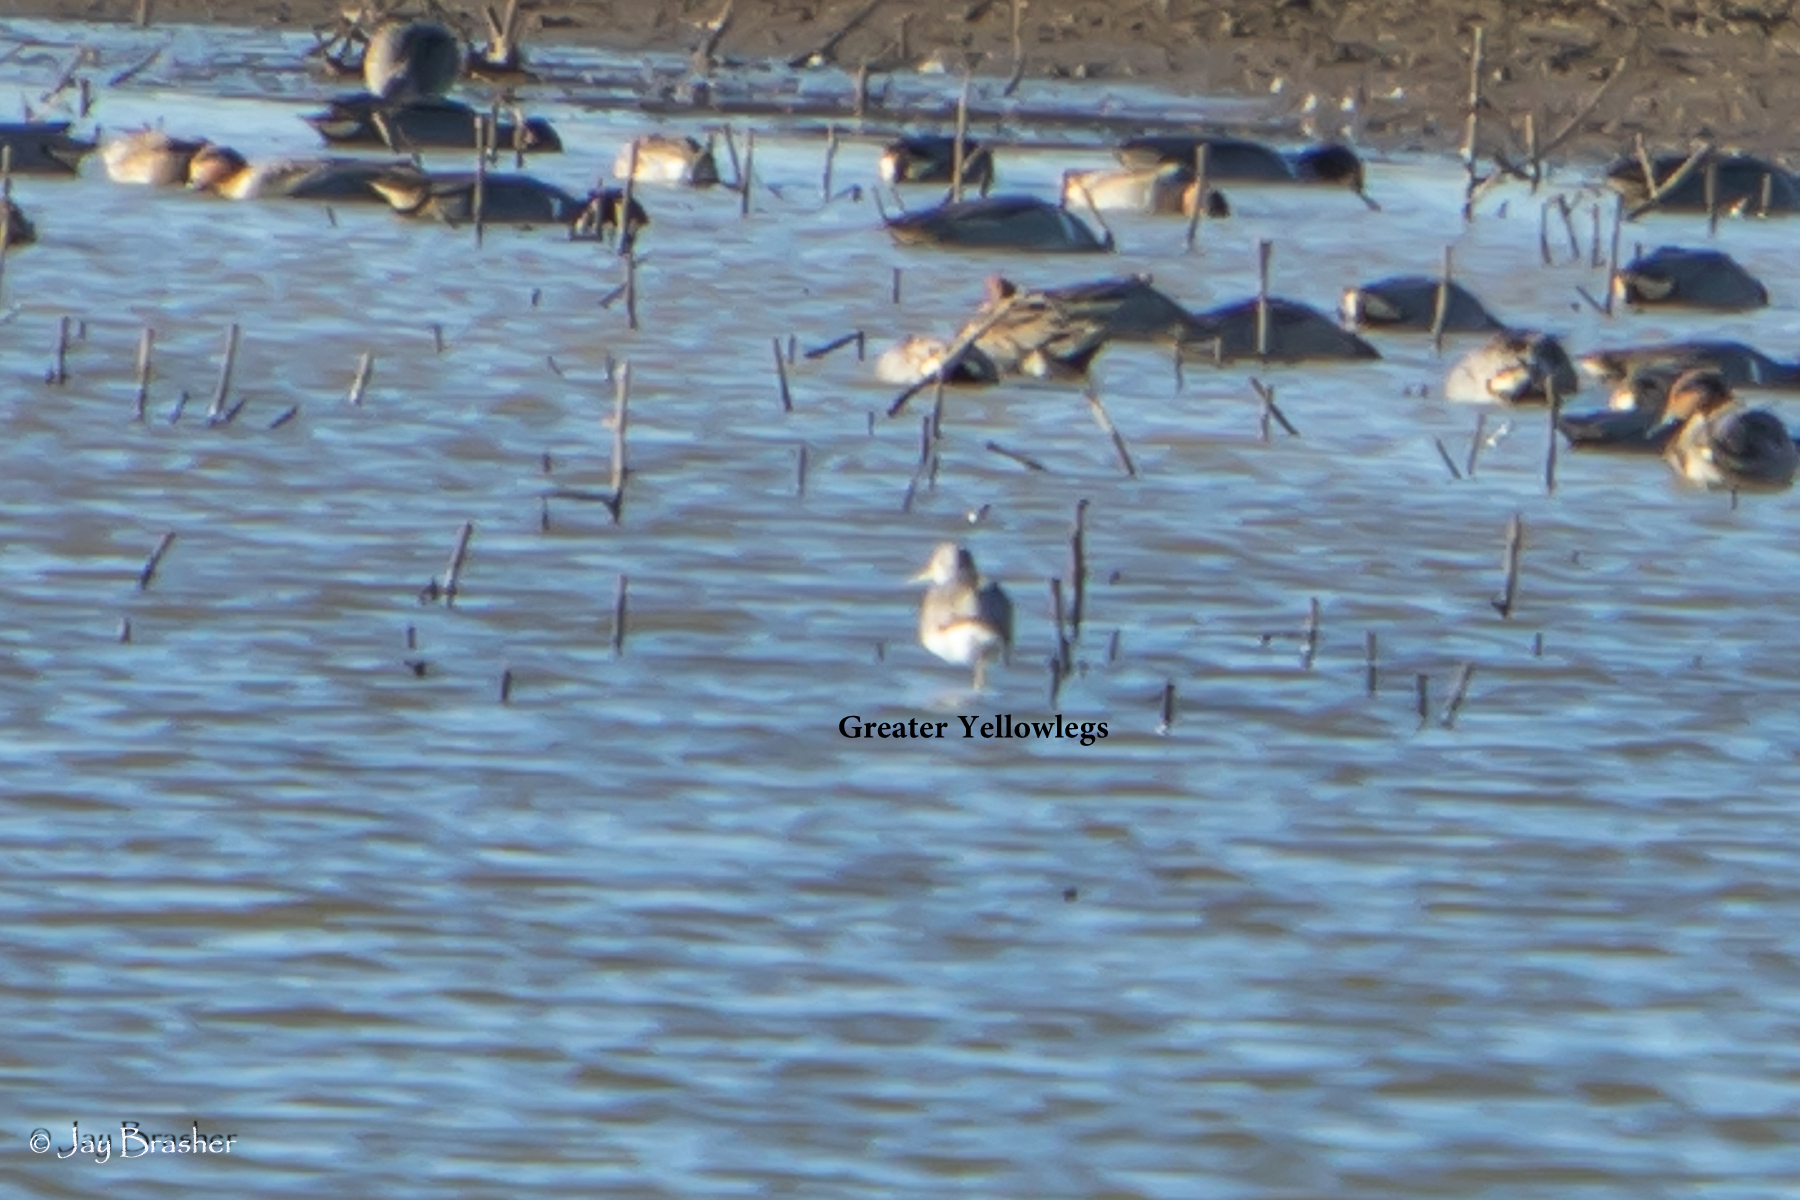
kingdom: Animalia
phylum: Chordata
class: Aves
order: Charadriiformes
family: Scolopacidae
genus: Tringa
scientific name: Tringa melanoleuca
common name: Greater yellowlegs
